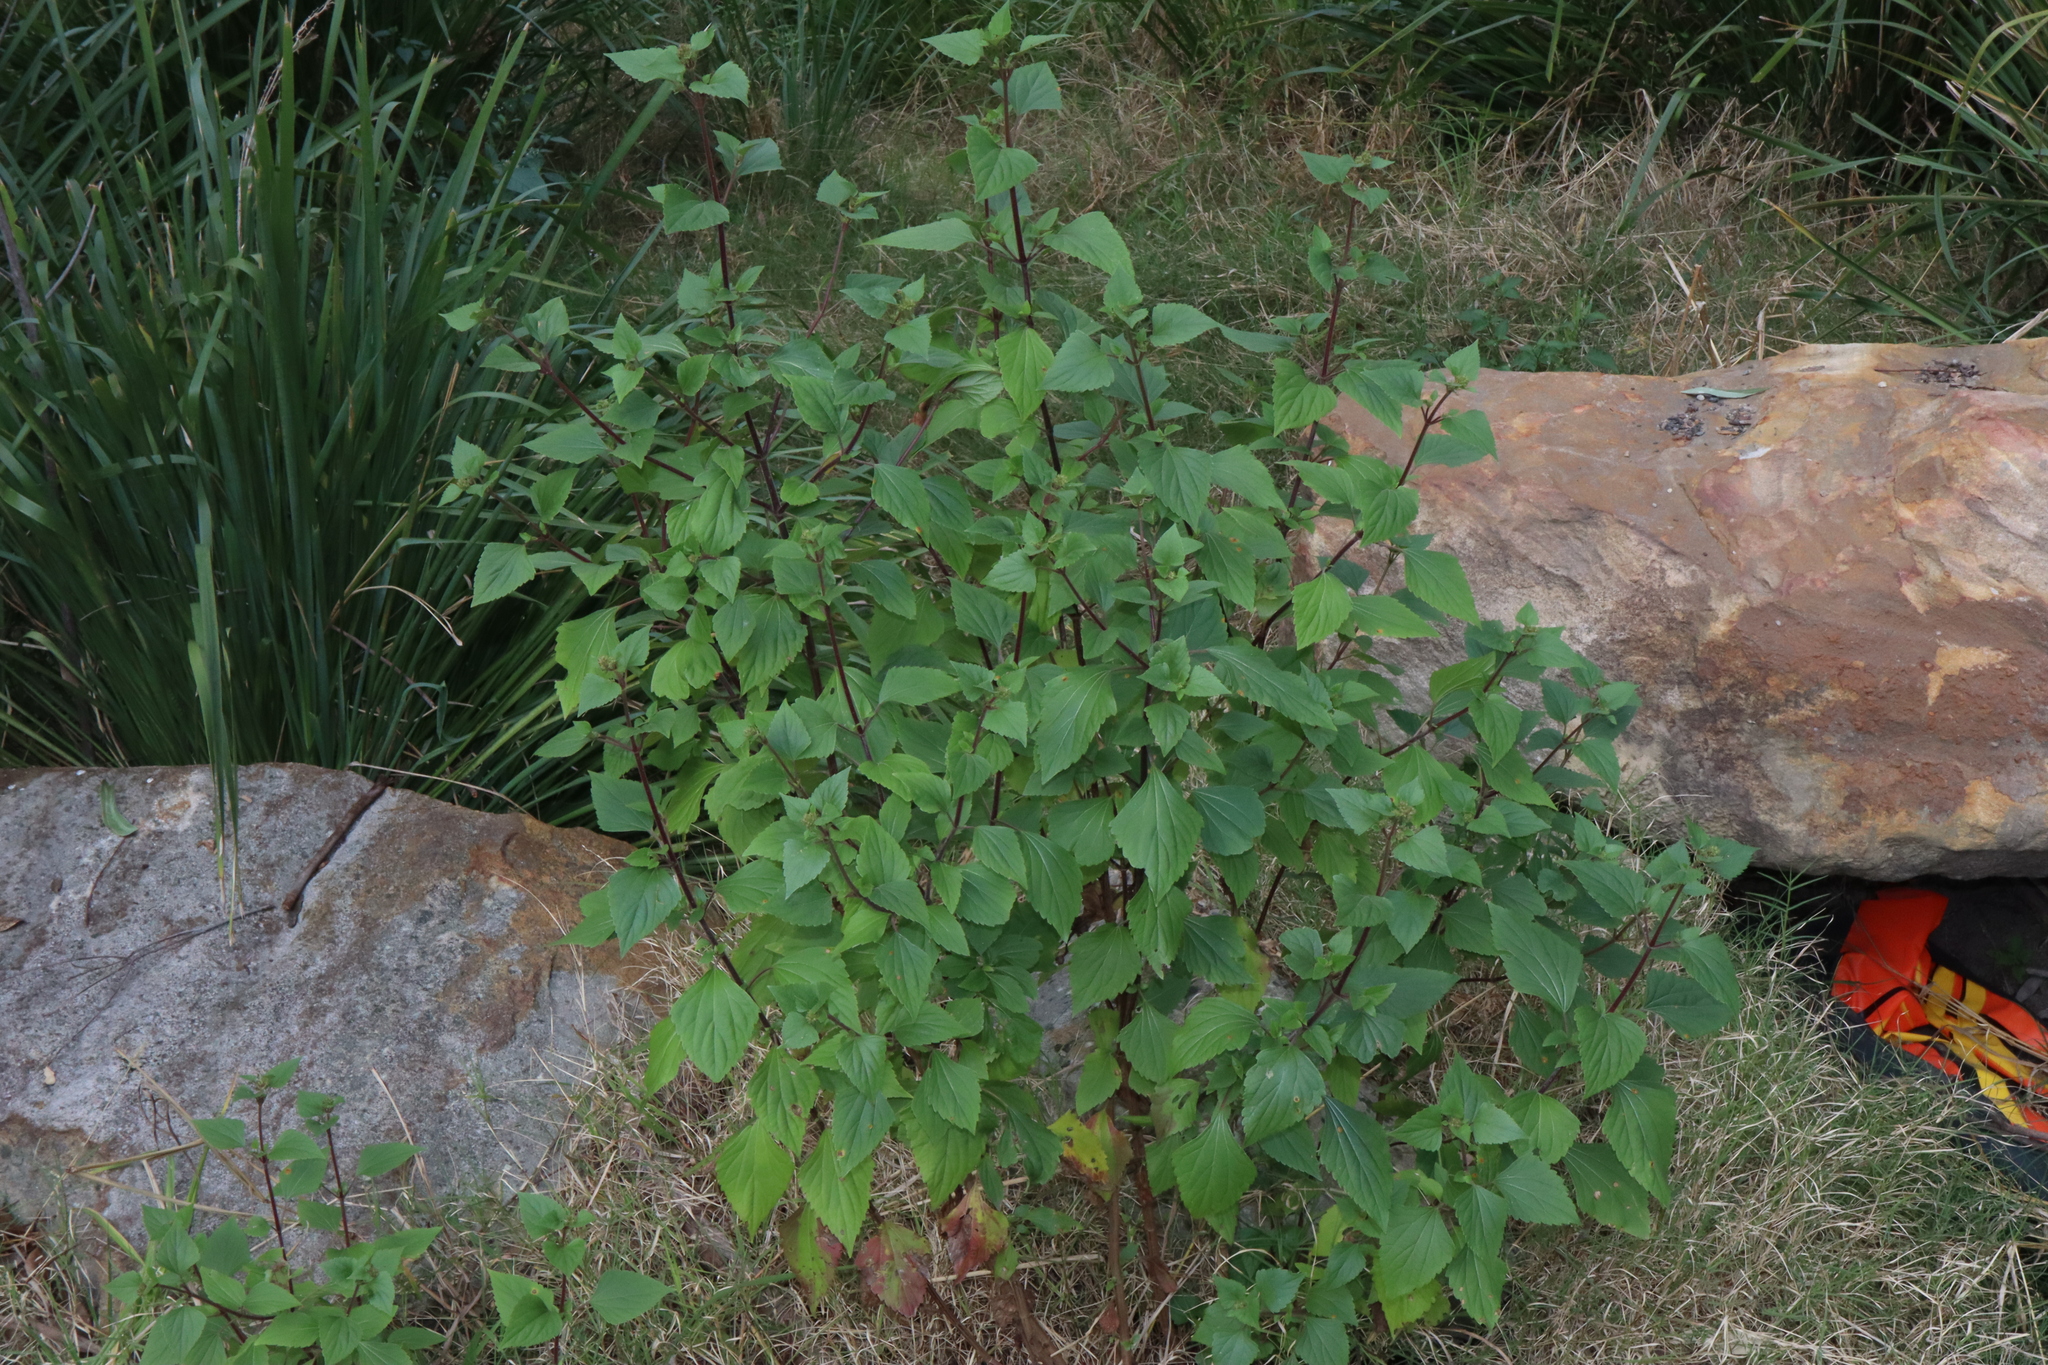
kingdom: Plantae
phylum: Tracheophyta
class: Magnoliopsida
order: Asterales
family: Asteraceae
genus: Ageratina
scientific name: Ageratina adenophora
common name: Sticky snakeroot
